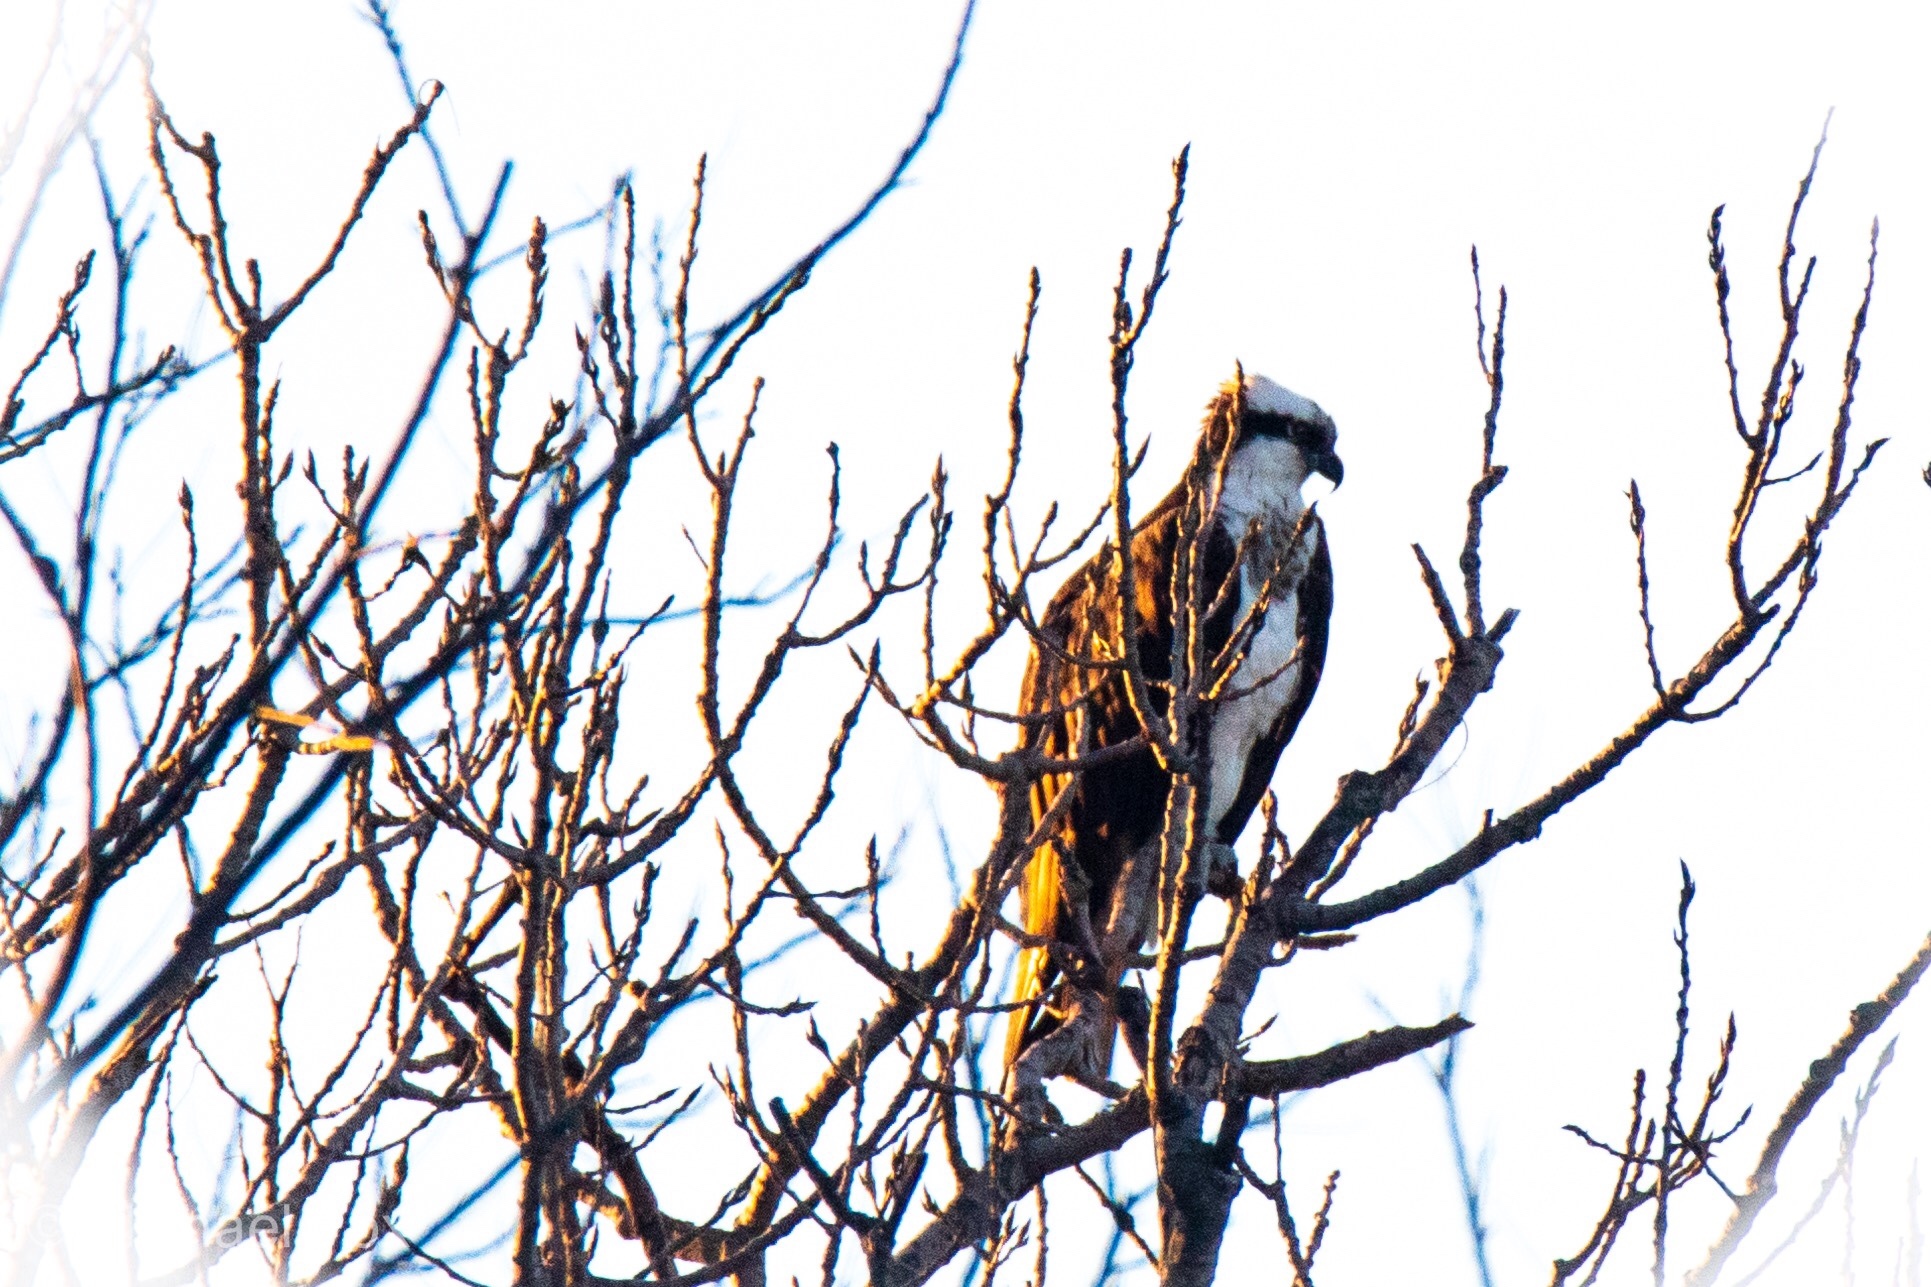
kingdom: Animalia
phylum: Chordata
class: Aves
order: Accipitriformes
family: Pandionidae
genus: Pandion
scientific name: Pandion haliaetus
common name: Osprey
